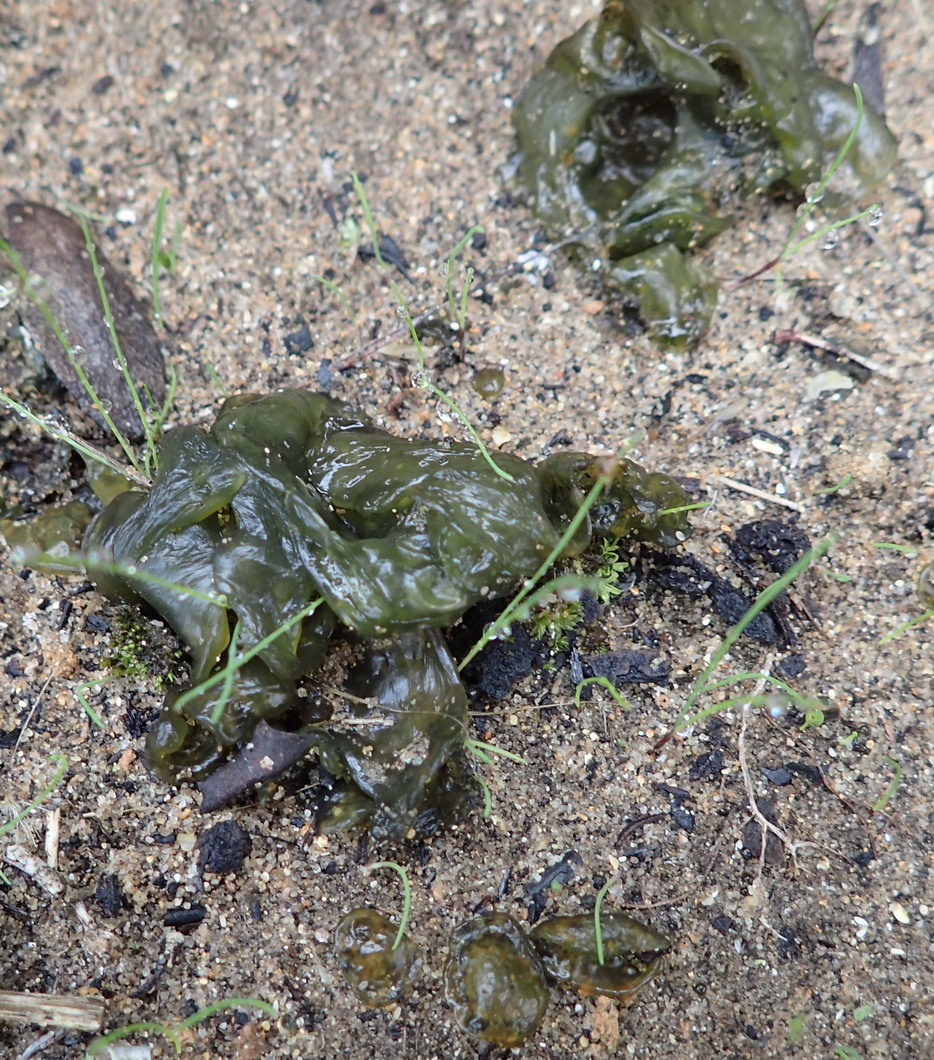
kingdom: Bacteria
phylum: Cyanobacteria
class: Cyanobacteriia
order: Cyanobacteriales
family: Nostocaceae
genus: Nostoc
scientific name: Nostoc commune
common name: Star jelly
